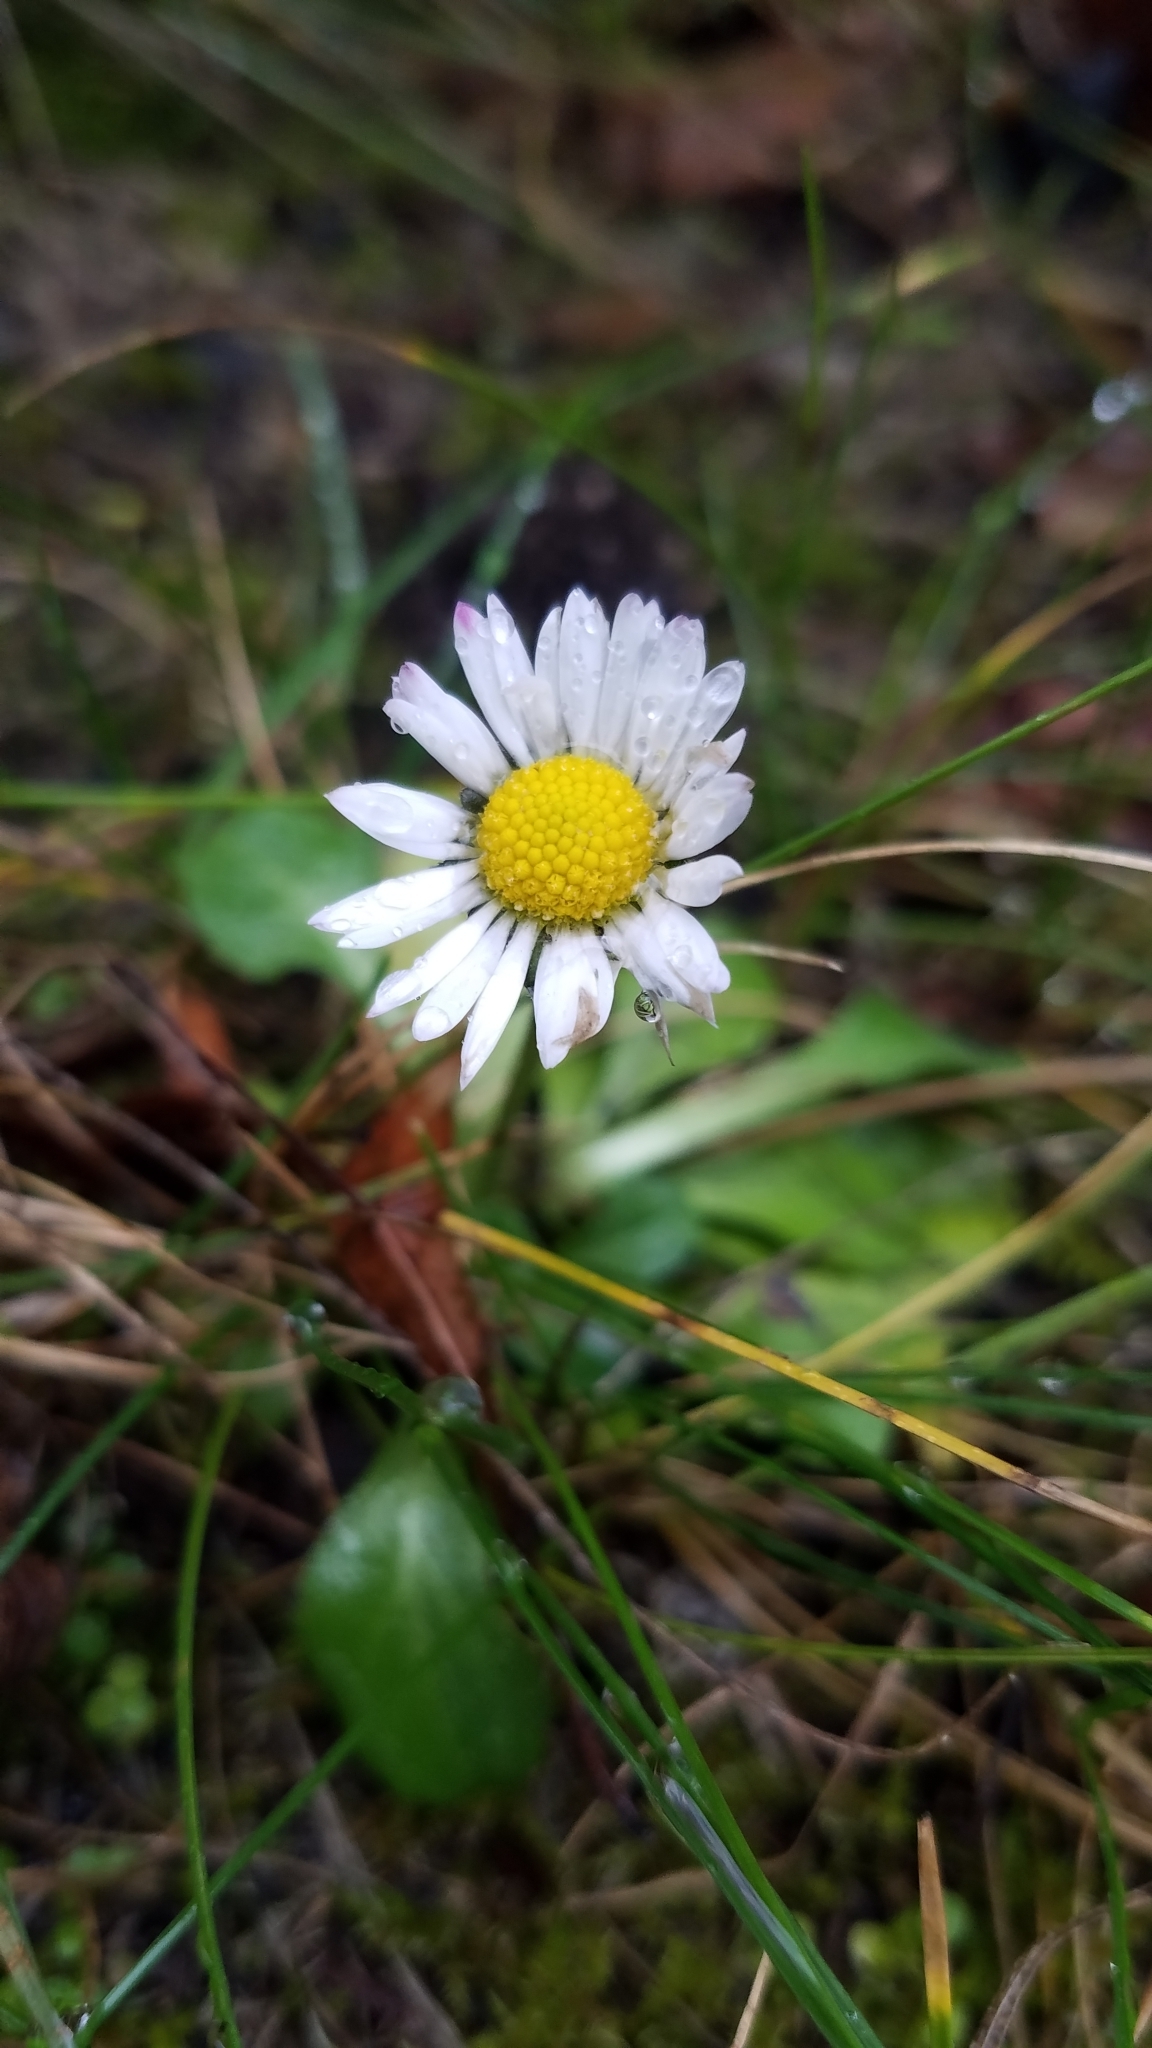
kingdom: Plantae
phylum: Tracheophyta
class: Magnoliopsida
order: Asterales
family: Asteraceae
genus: Bellis
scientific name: Bellis perennis
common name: Lawndaisy
